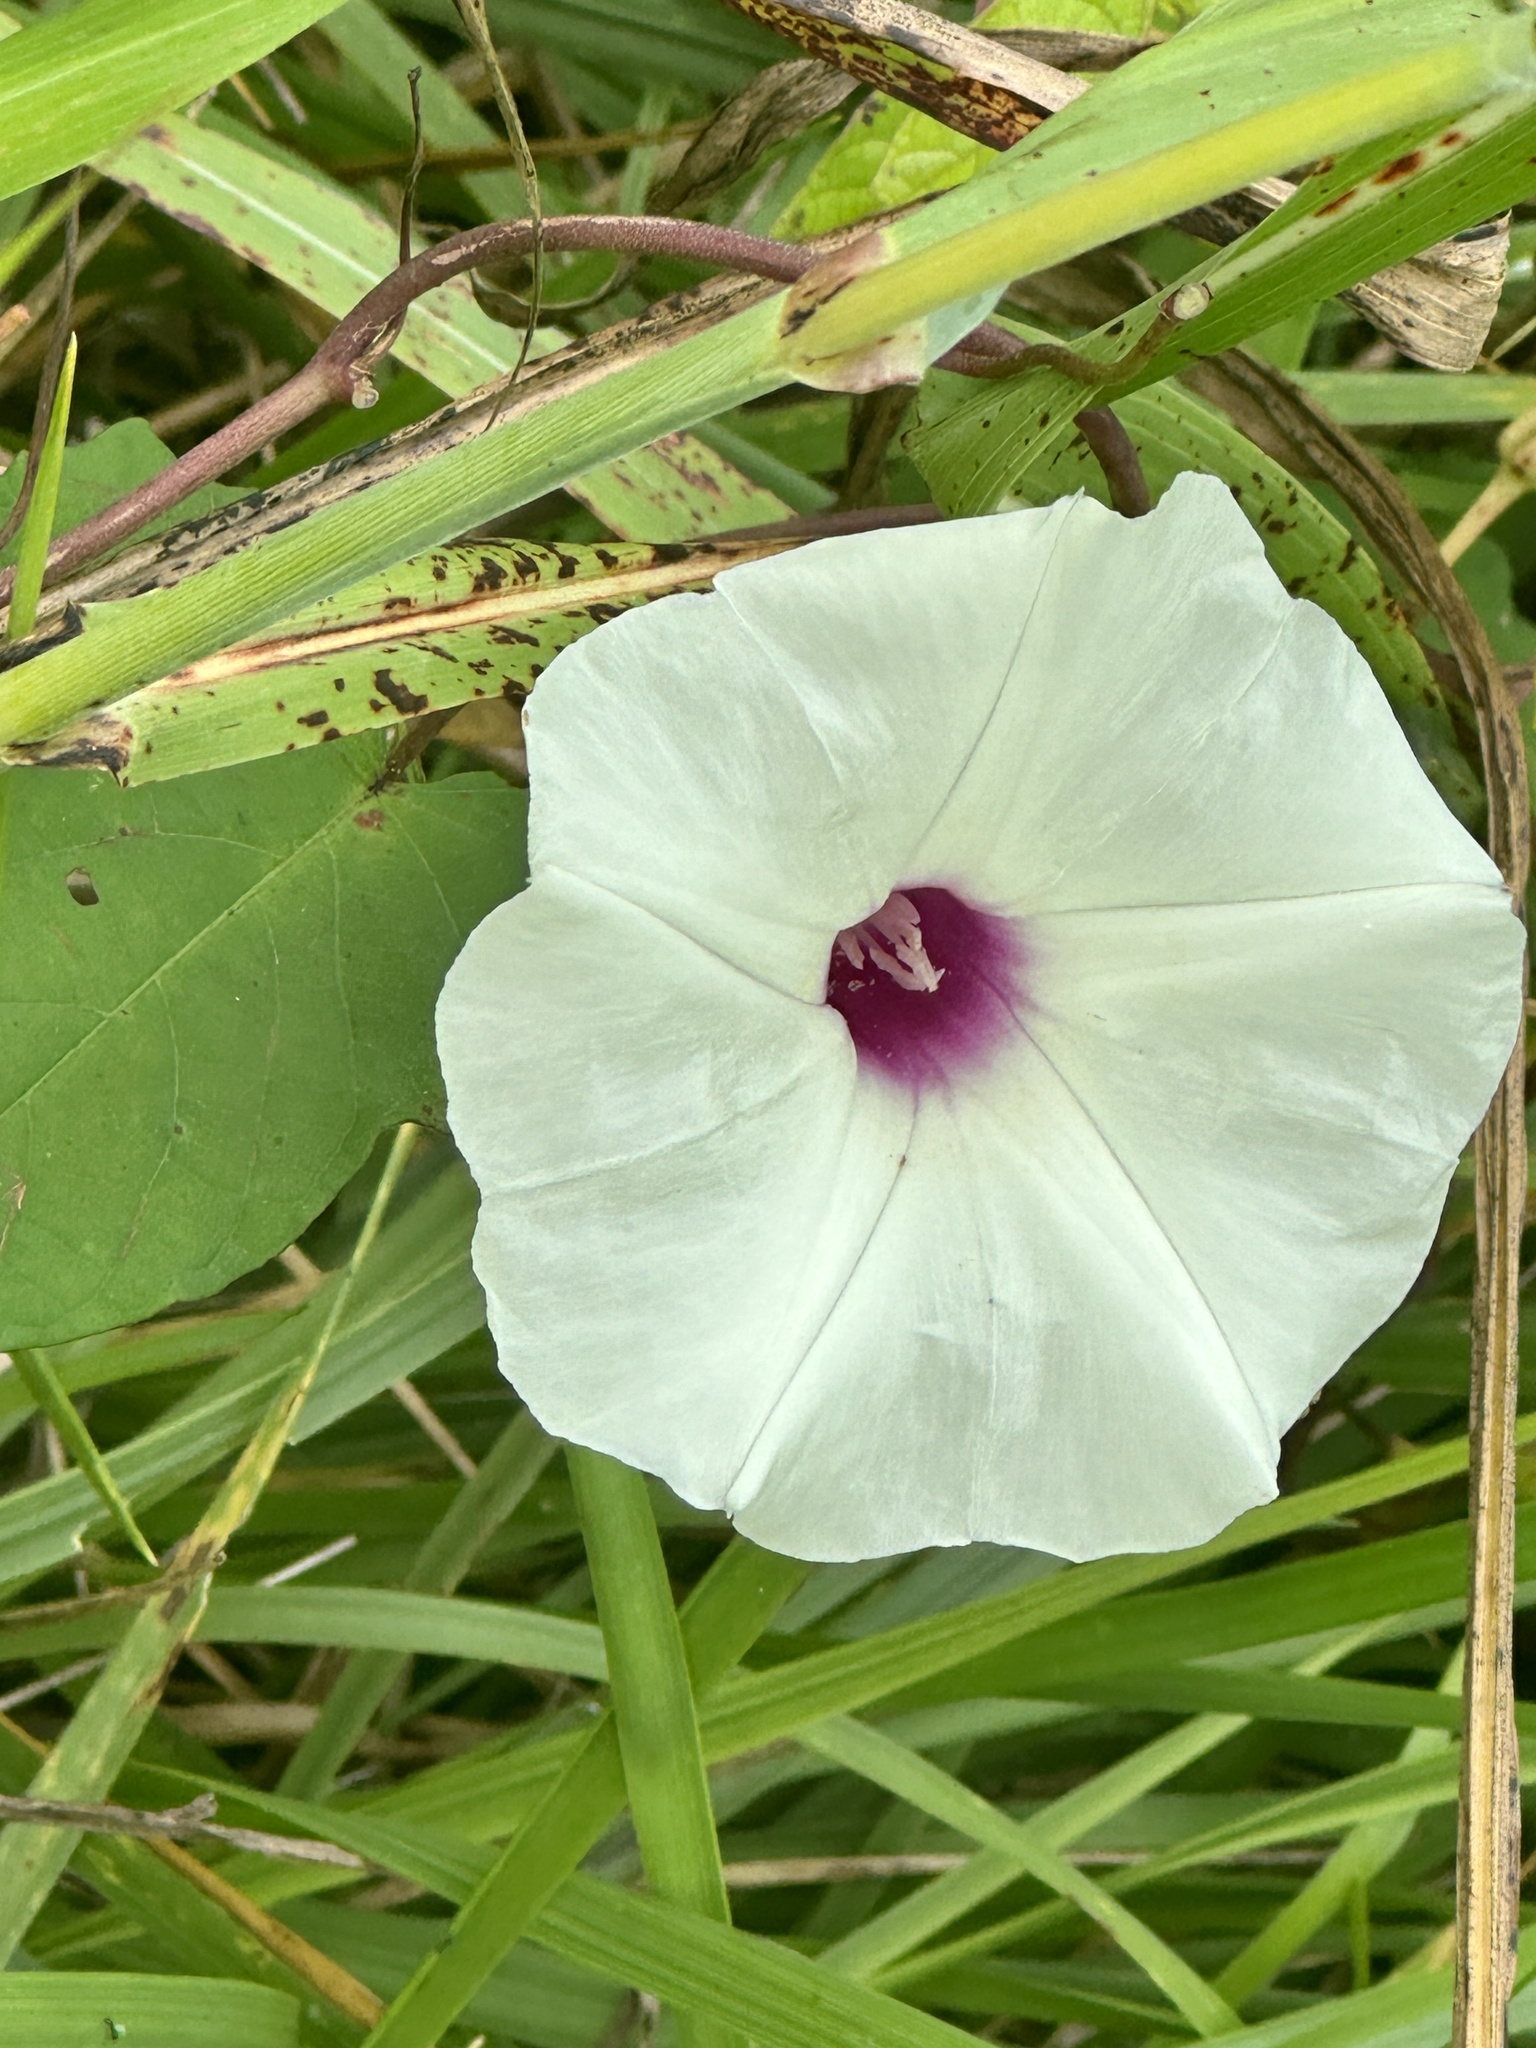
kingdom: Plantae
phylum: Tracheophyta
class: Magnoliopsida
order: Solanales
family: Convolvulaceae
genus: Ipomoea
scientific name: Ipomoea pandurata
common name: Man-of-the-earth
